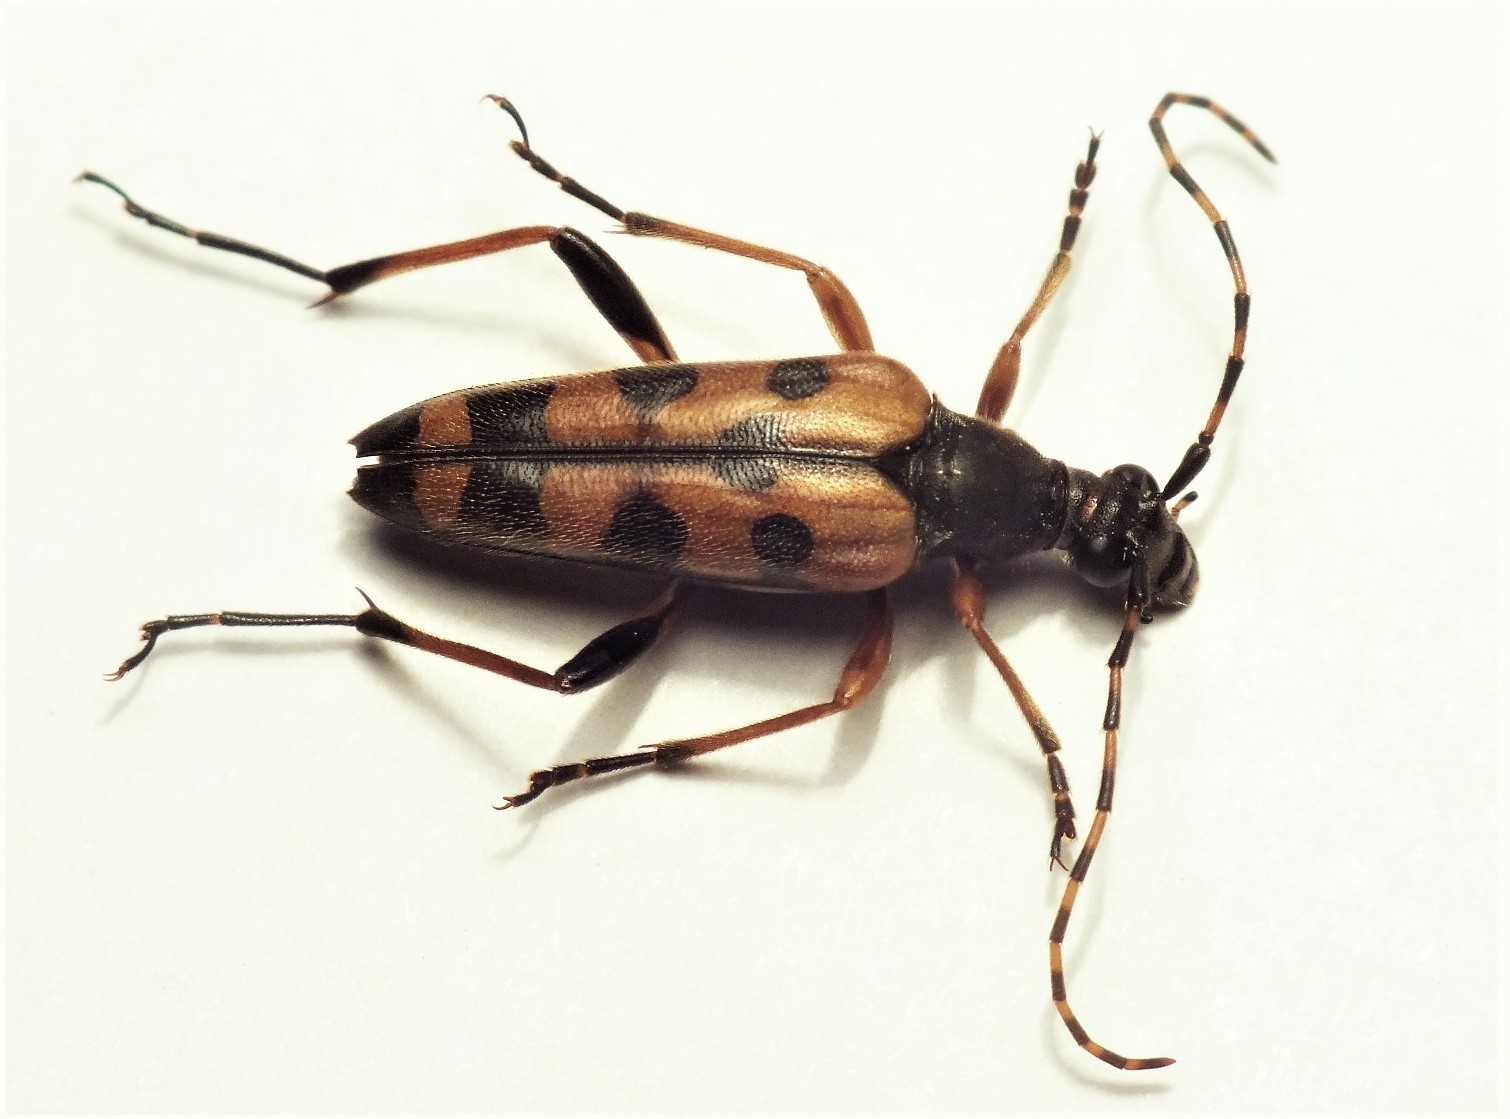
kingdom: Animalia
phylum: Arthropoda
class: Insecta
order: Coleoptera
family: Cerambycidae
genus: Rutpela
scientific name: Rutpela maculata
